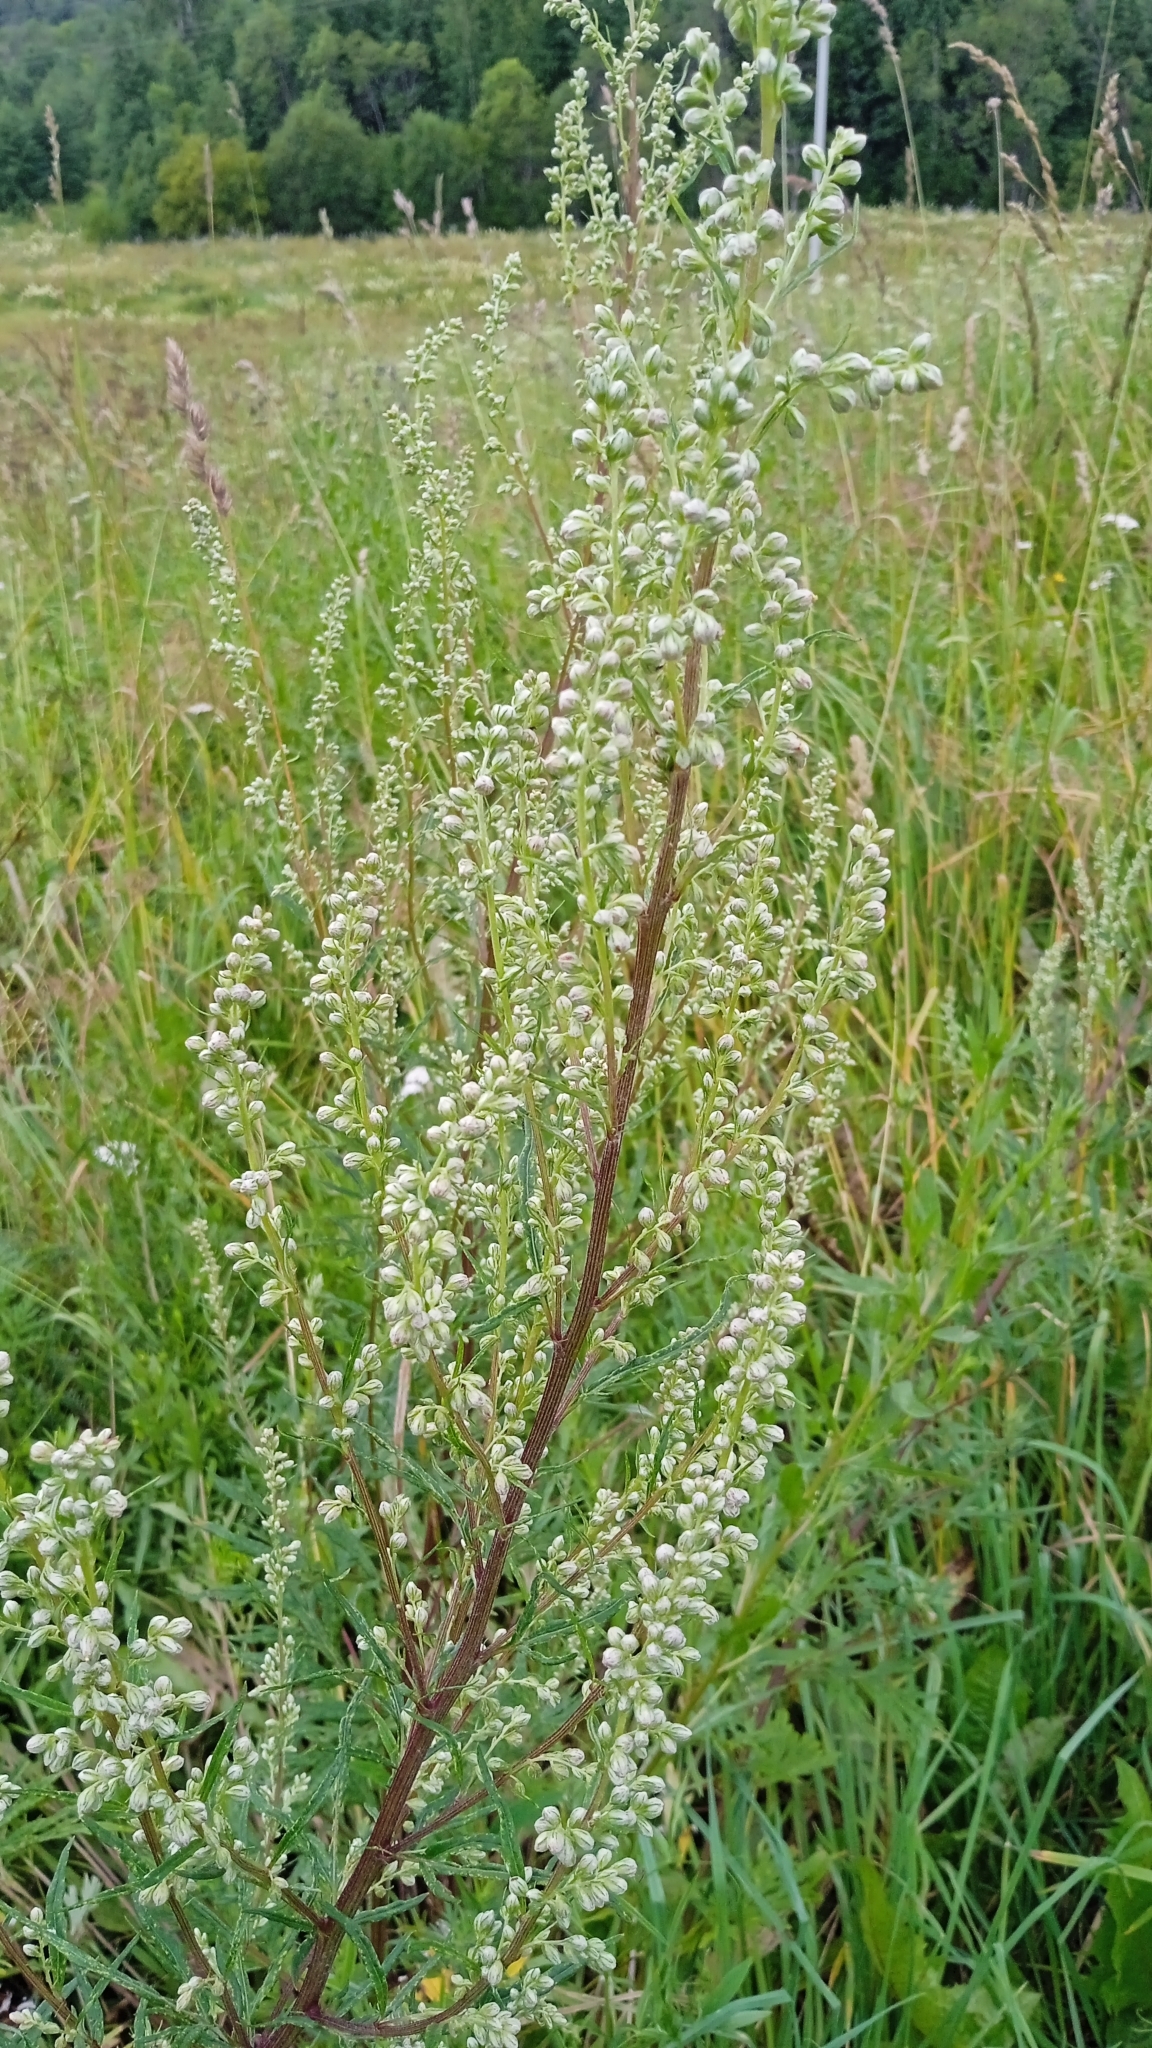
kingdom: Plantae
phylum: Tracheophyta
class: Magnoliopsida
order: Asterales
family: Asteraceae
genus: Artemisia
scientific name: Artemisia vulgaris
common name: Mugwort
